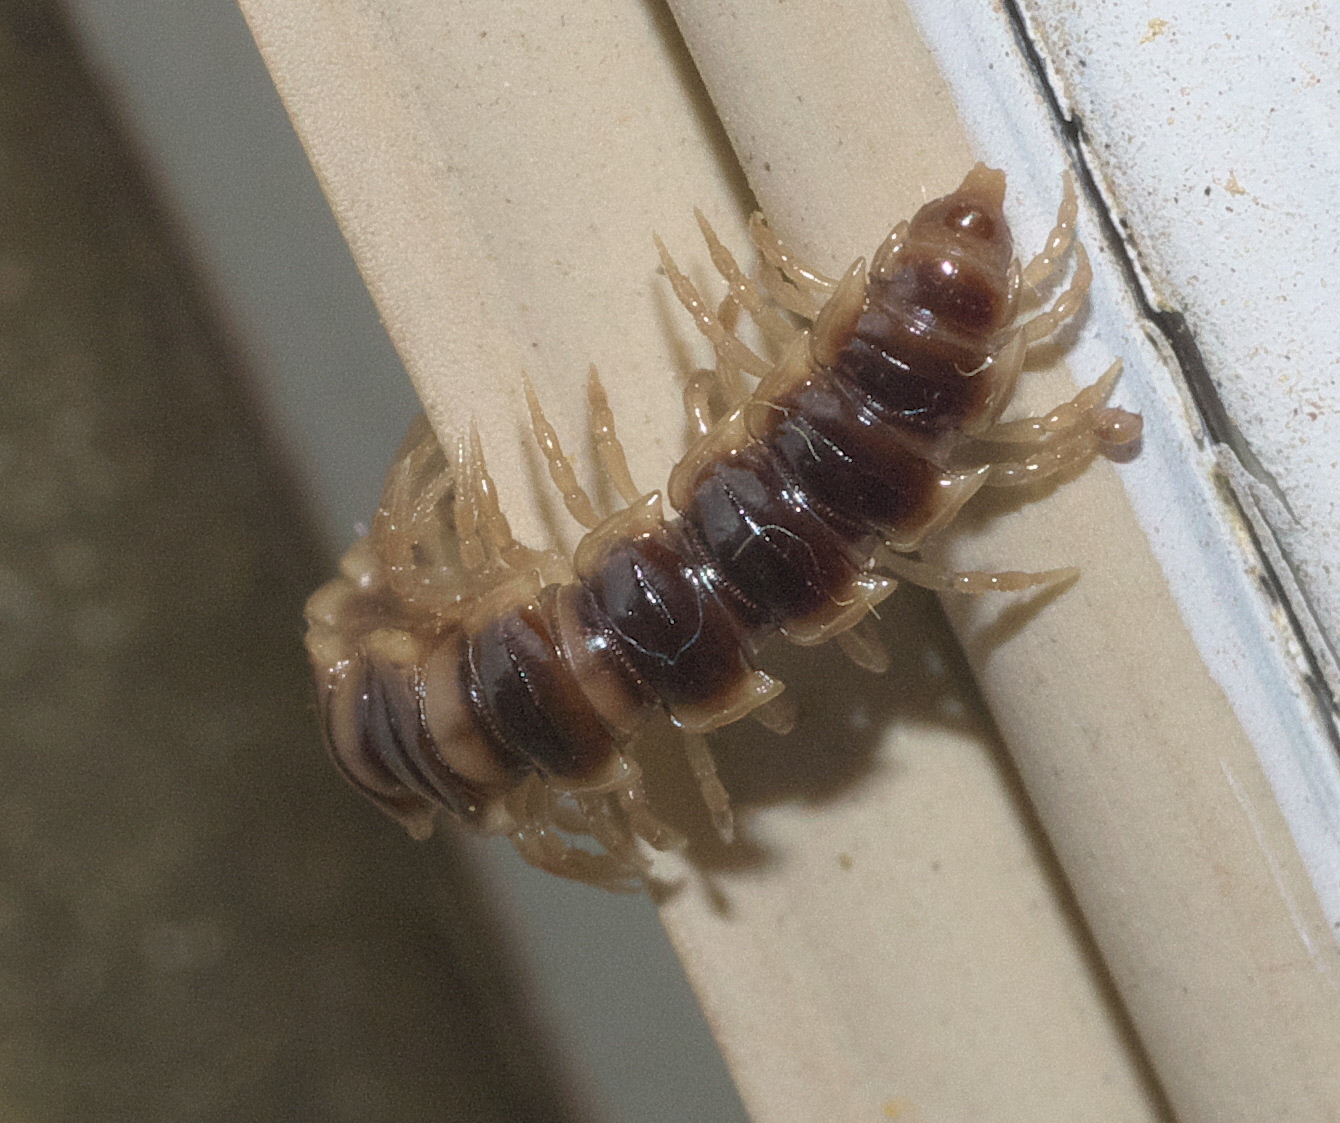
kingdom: Animalia
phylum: Arthropoda
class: Diplopoda
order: Polydesmida
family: Paradoxosomatidae
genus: Oxidus
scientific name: Oxidus gracilis
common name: Greenhouse millipede
